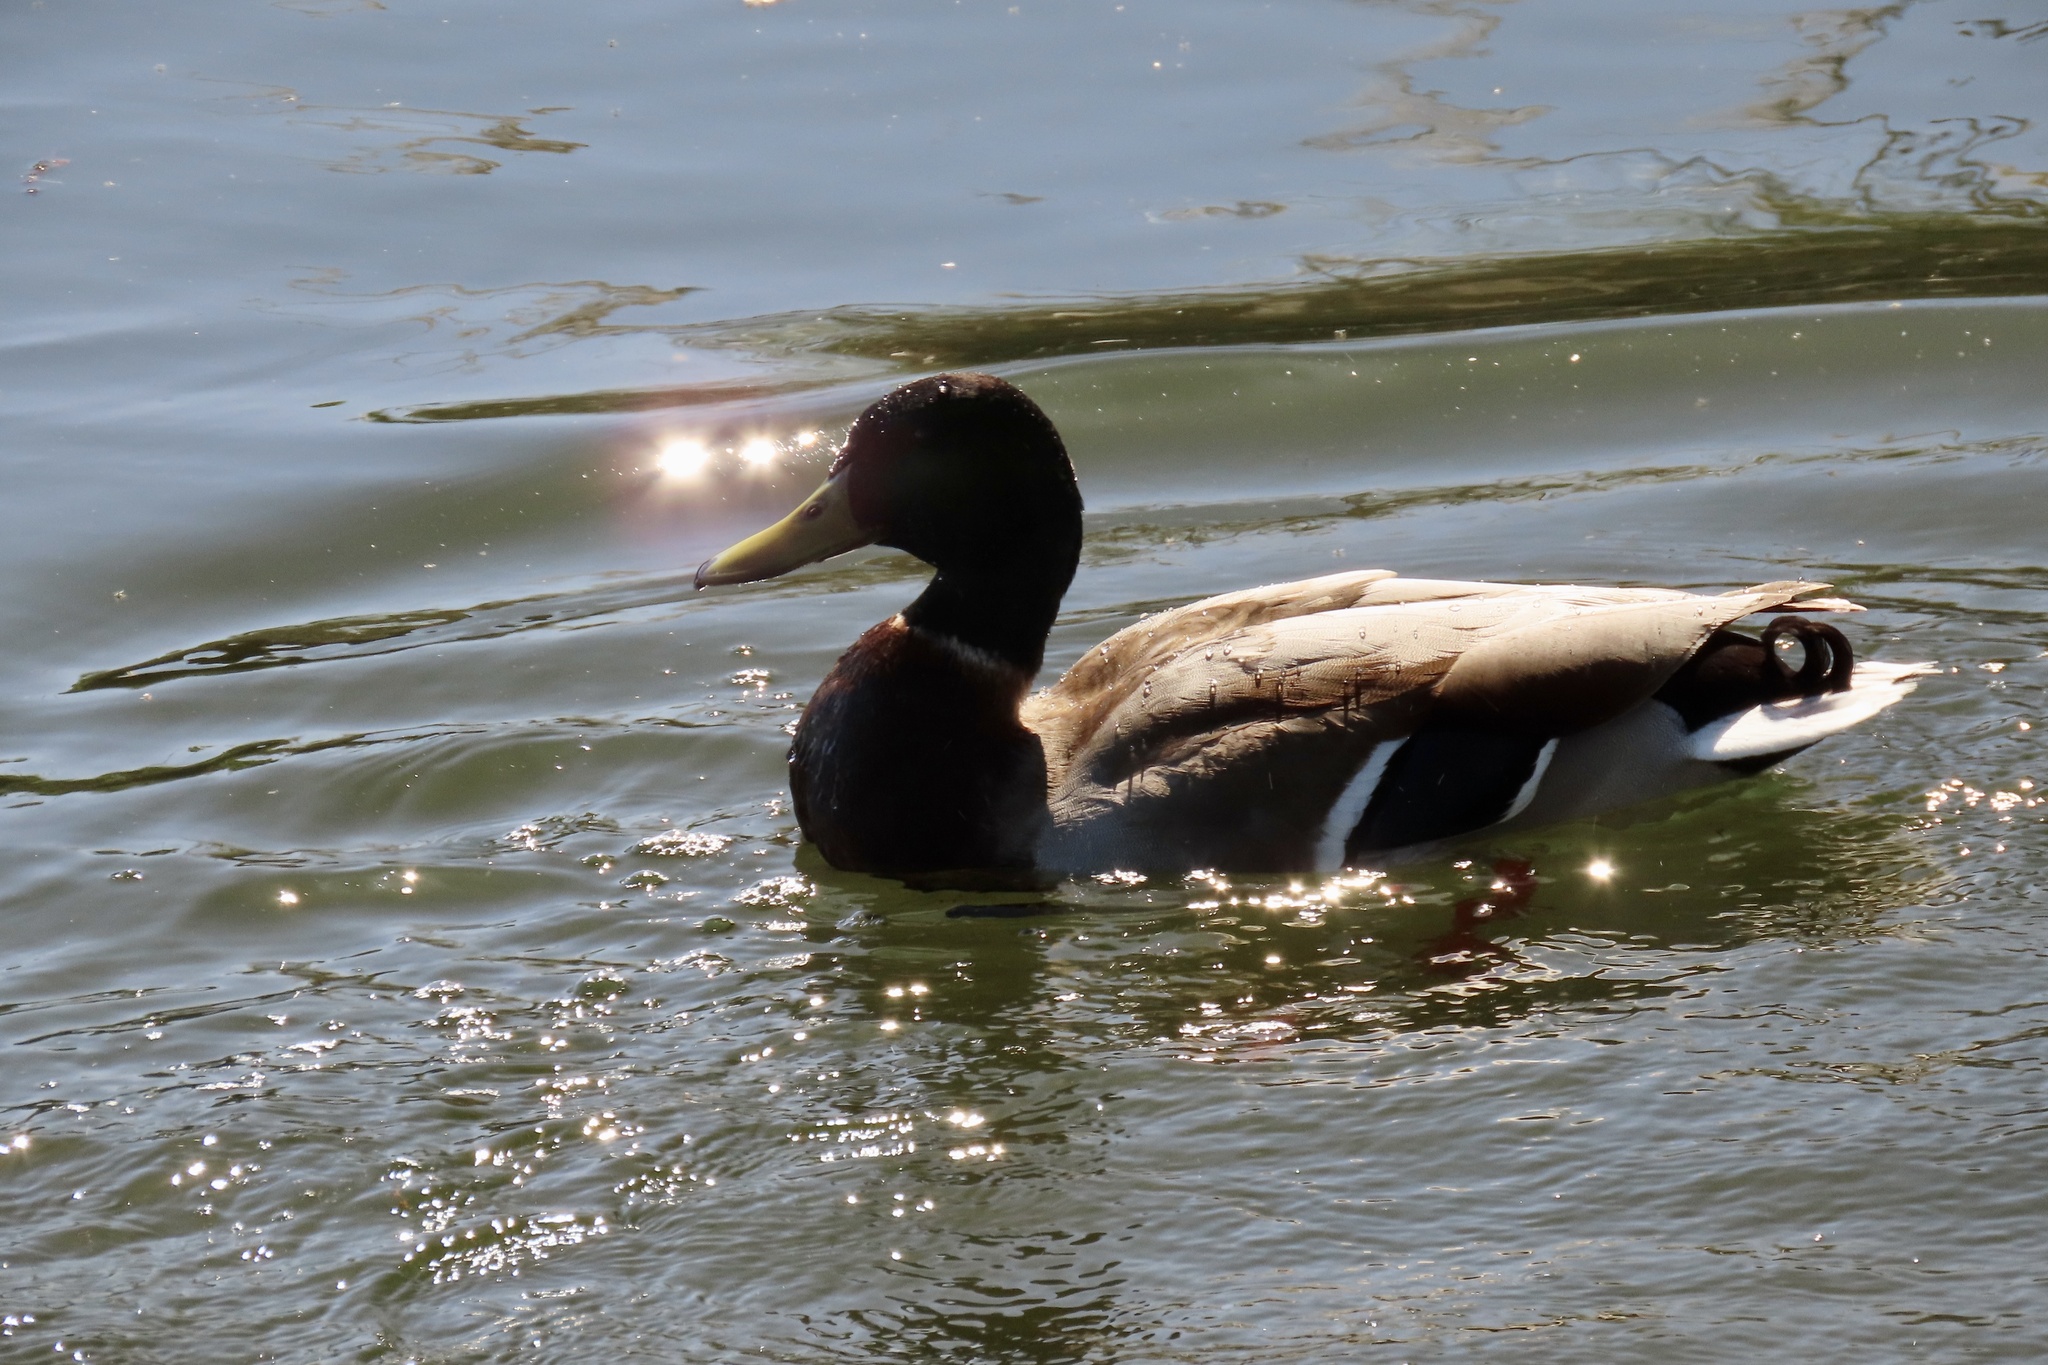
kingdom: Animalia
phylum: Chordata
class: Aves
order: Anseriformes
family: Anatidae
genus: Anas
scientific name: Anas platyrhynchos
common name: Mallard
